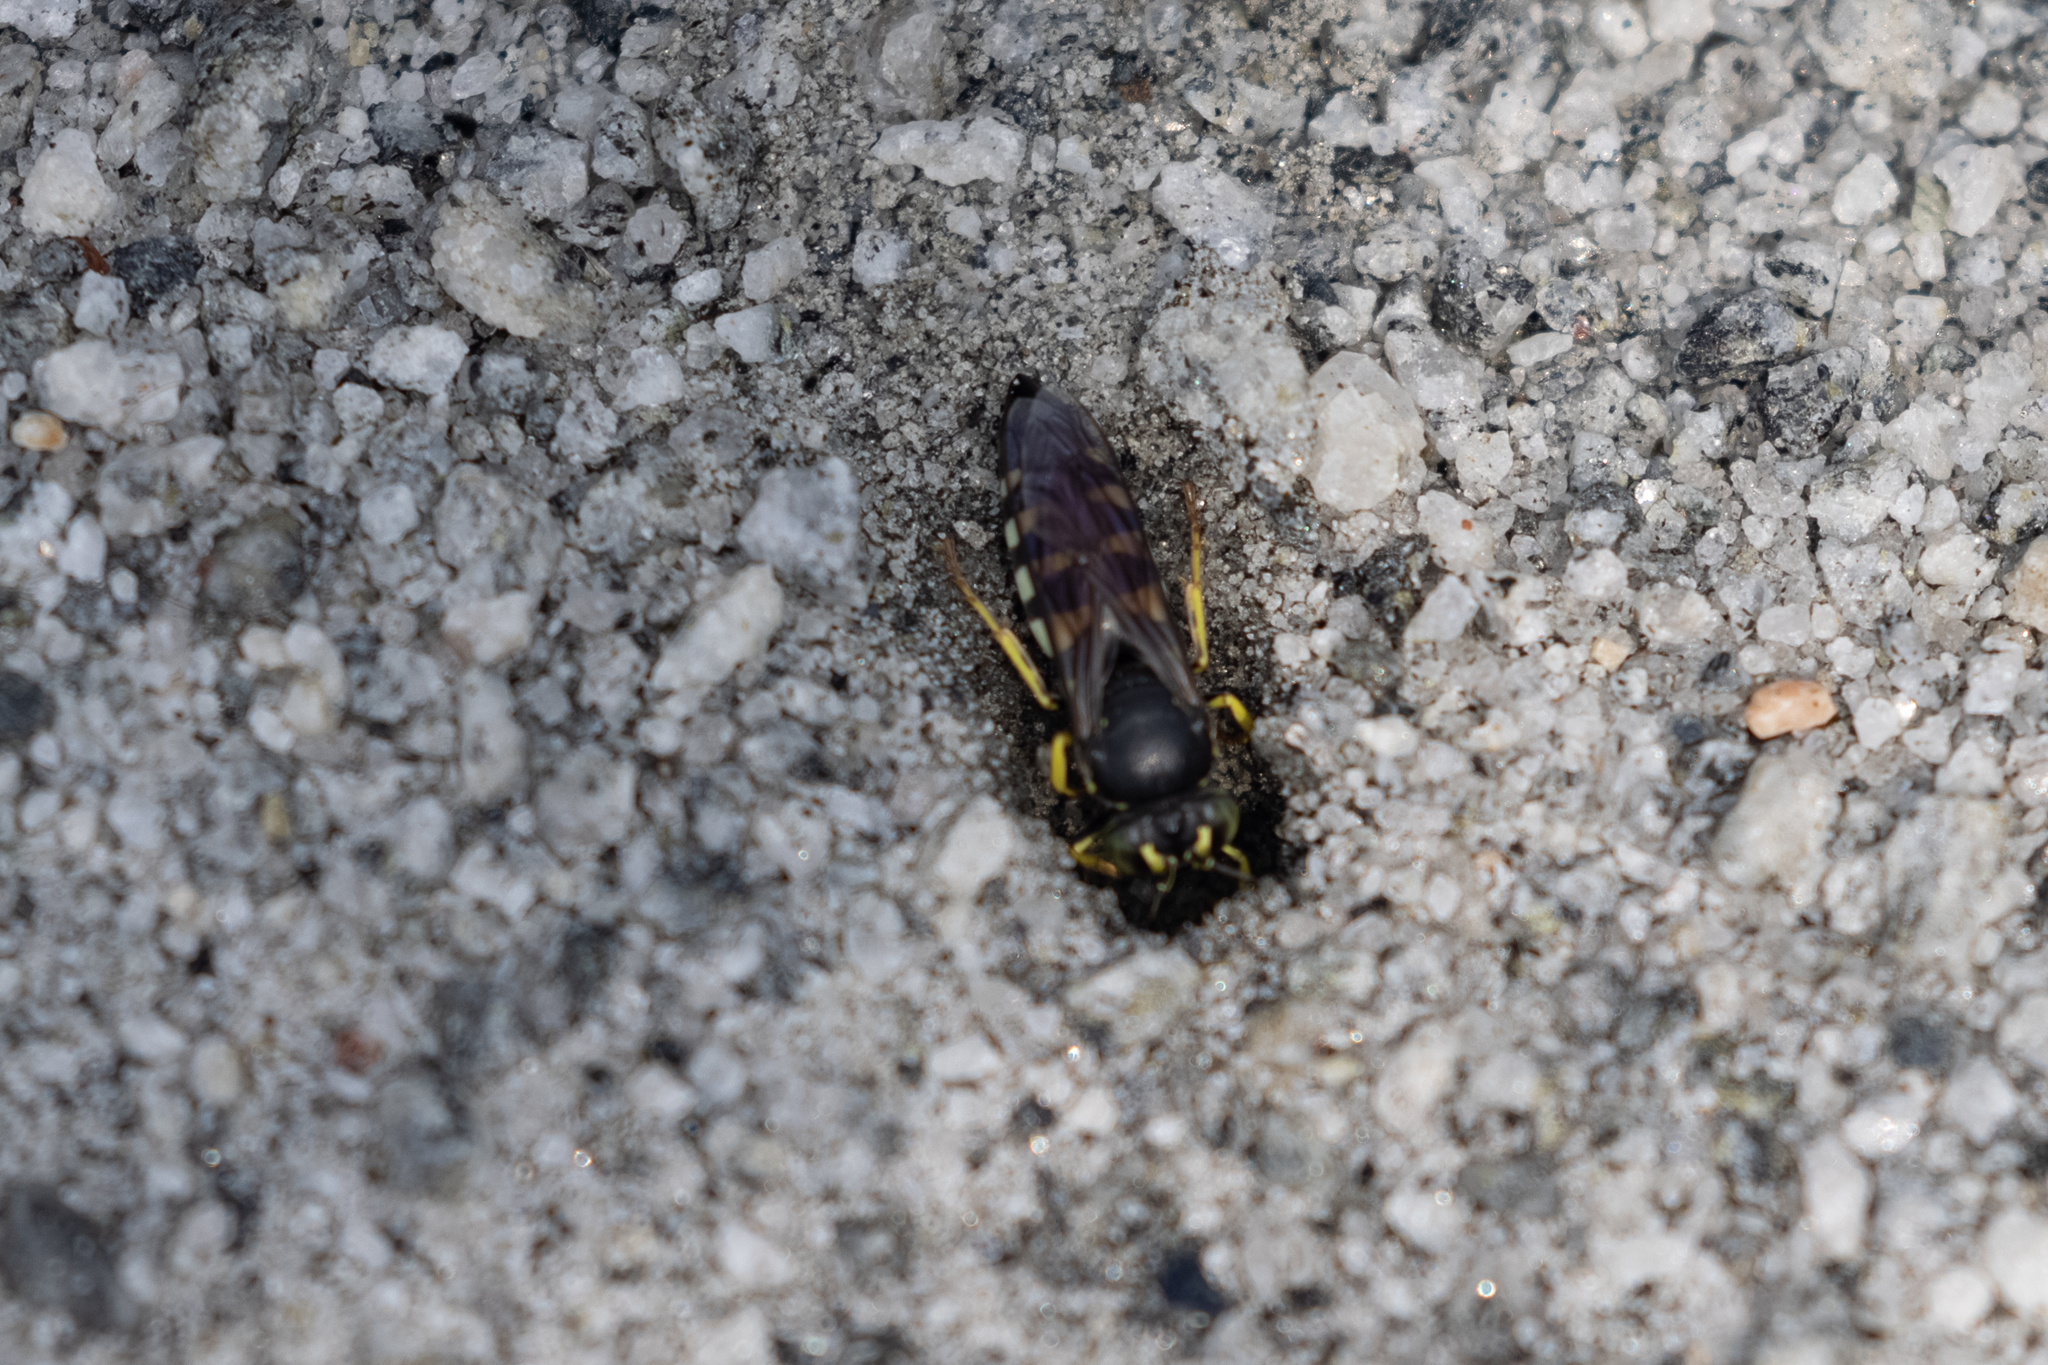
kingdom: Animalia
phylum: Arthropoda
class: Insecta
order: Hymenoptera
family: Crabronidae
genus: Bicyrtes
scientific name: Bicyrtes quadrifasciatus
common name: Four-banded stink bug hunter wasp
